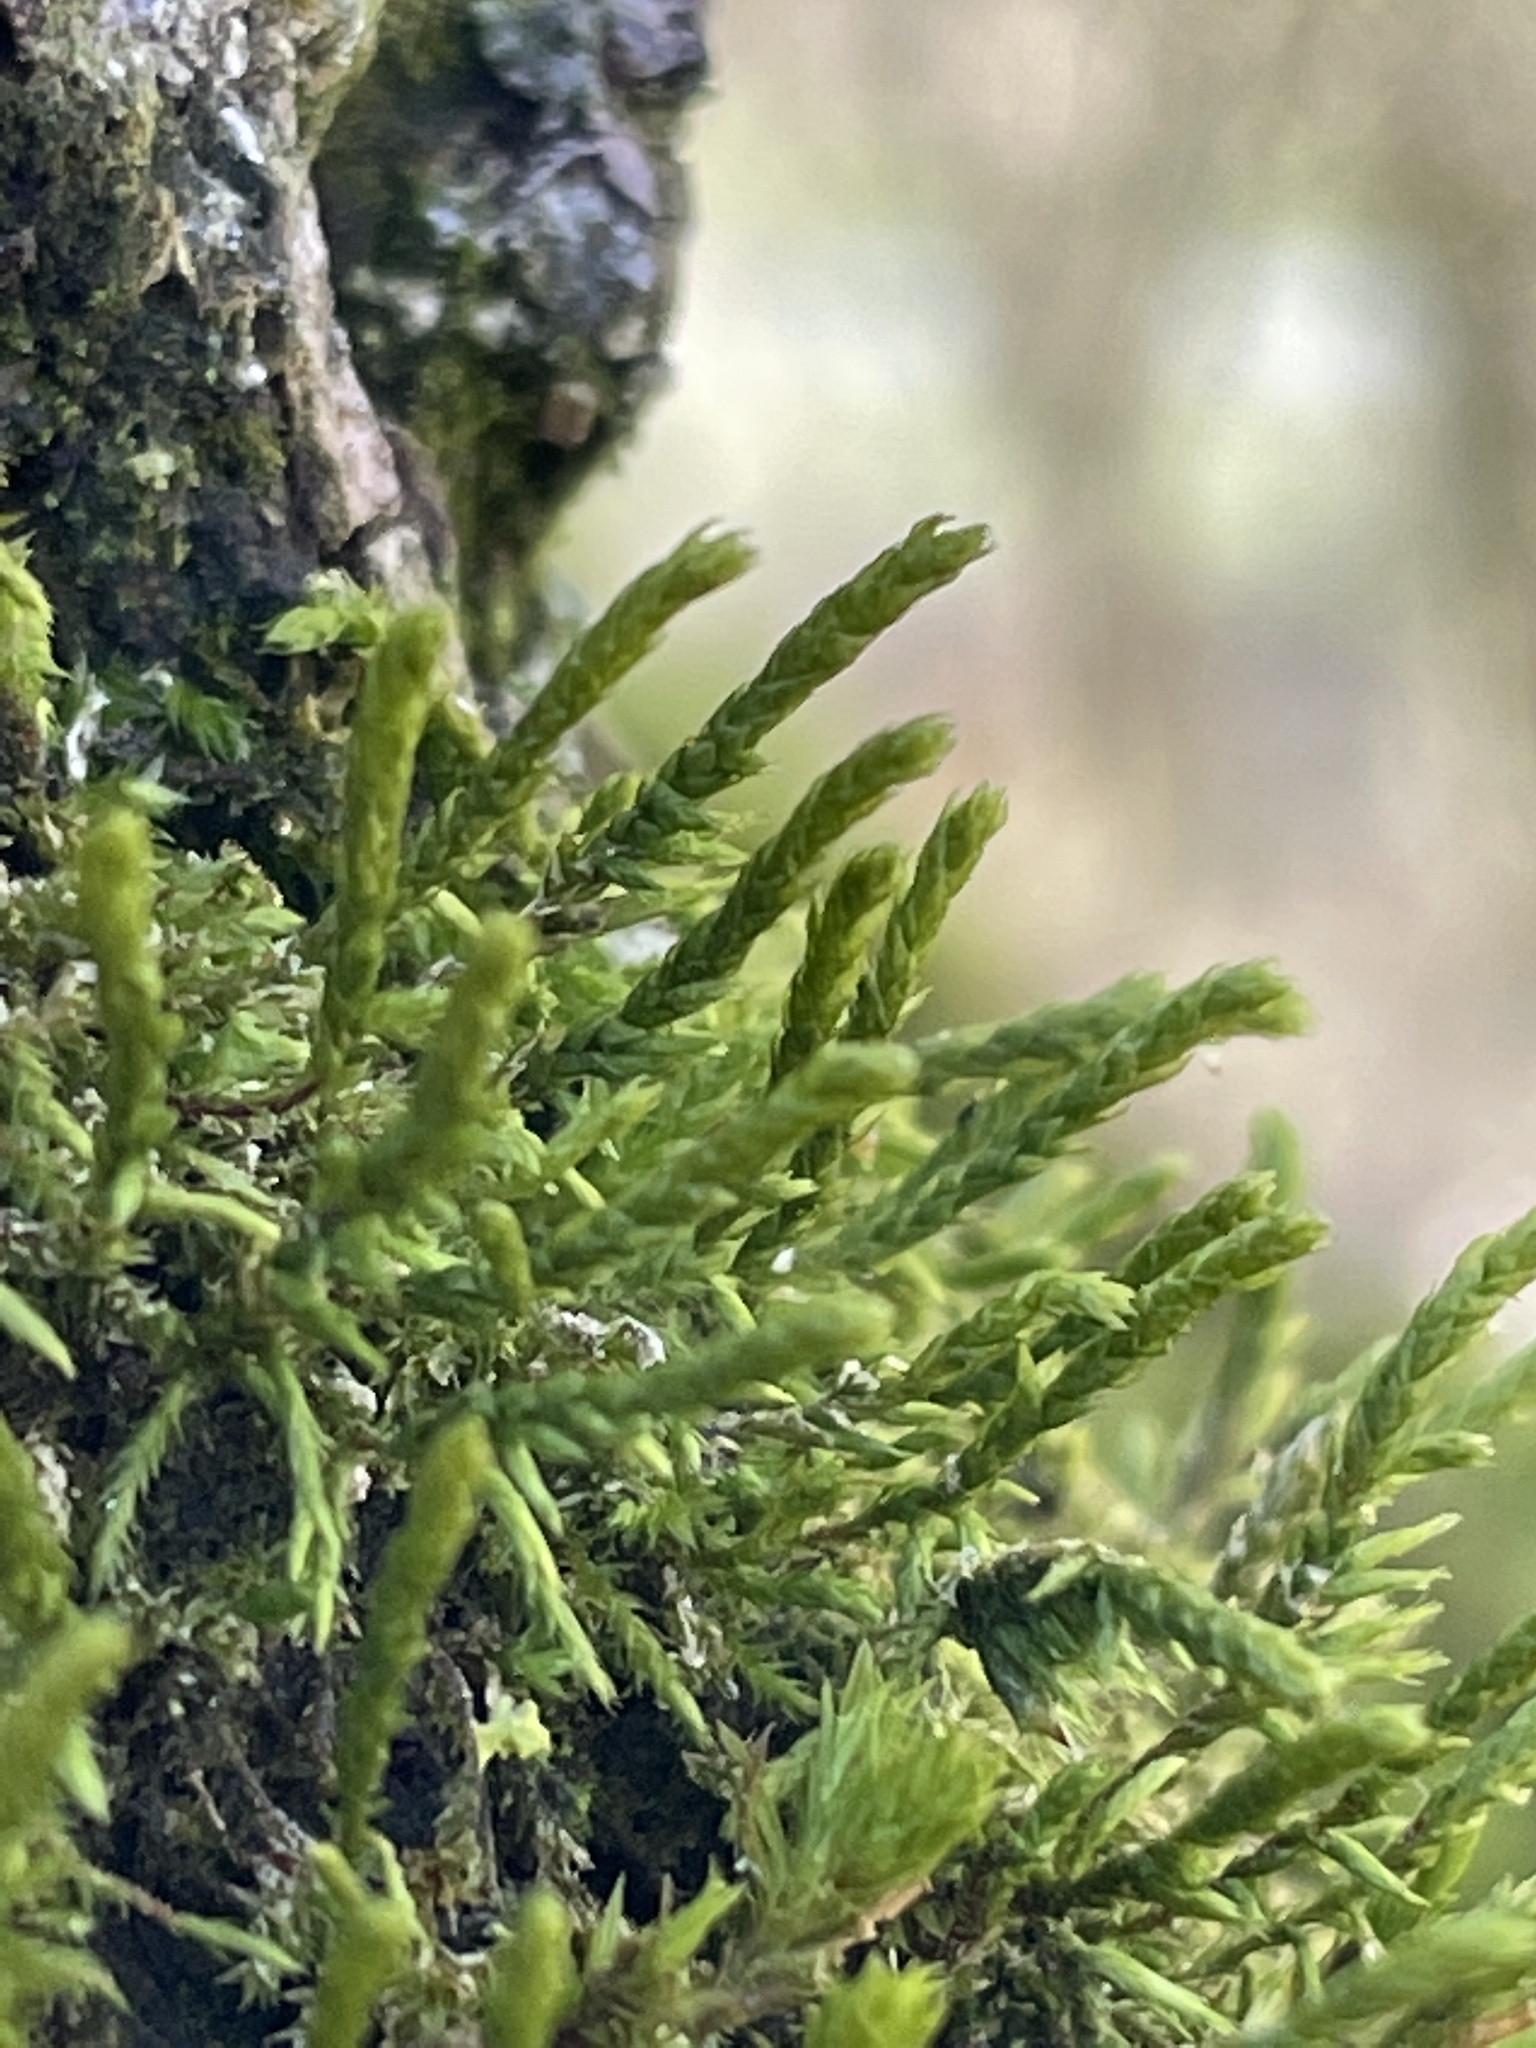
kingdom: Plantae
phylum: Bryophyta
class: Bryopsida
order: Hypnales
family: Cryphaeaceae
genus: Cryphaea
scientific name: Cryphaea heteromalla
